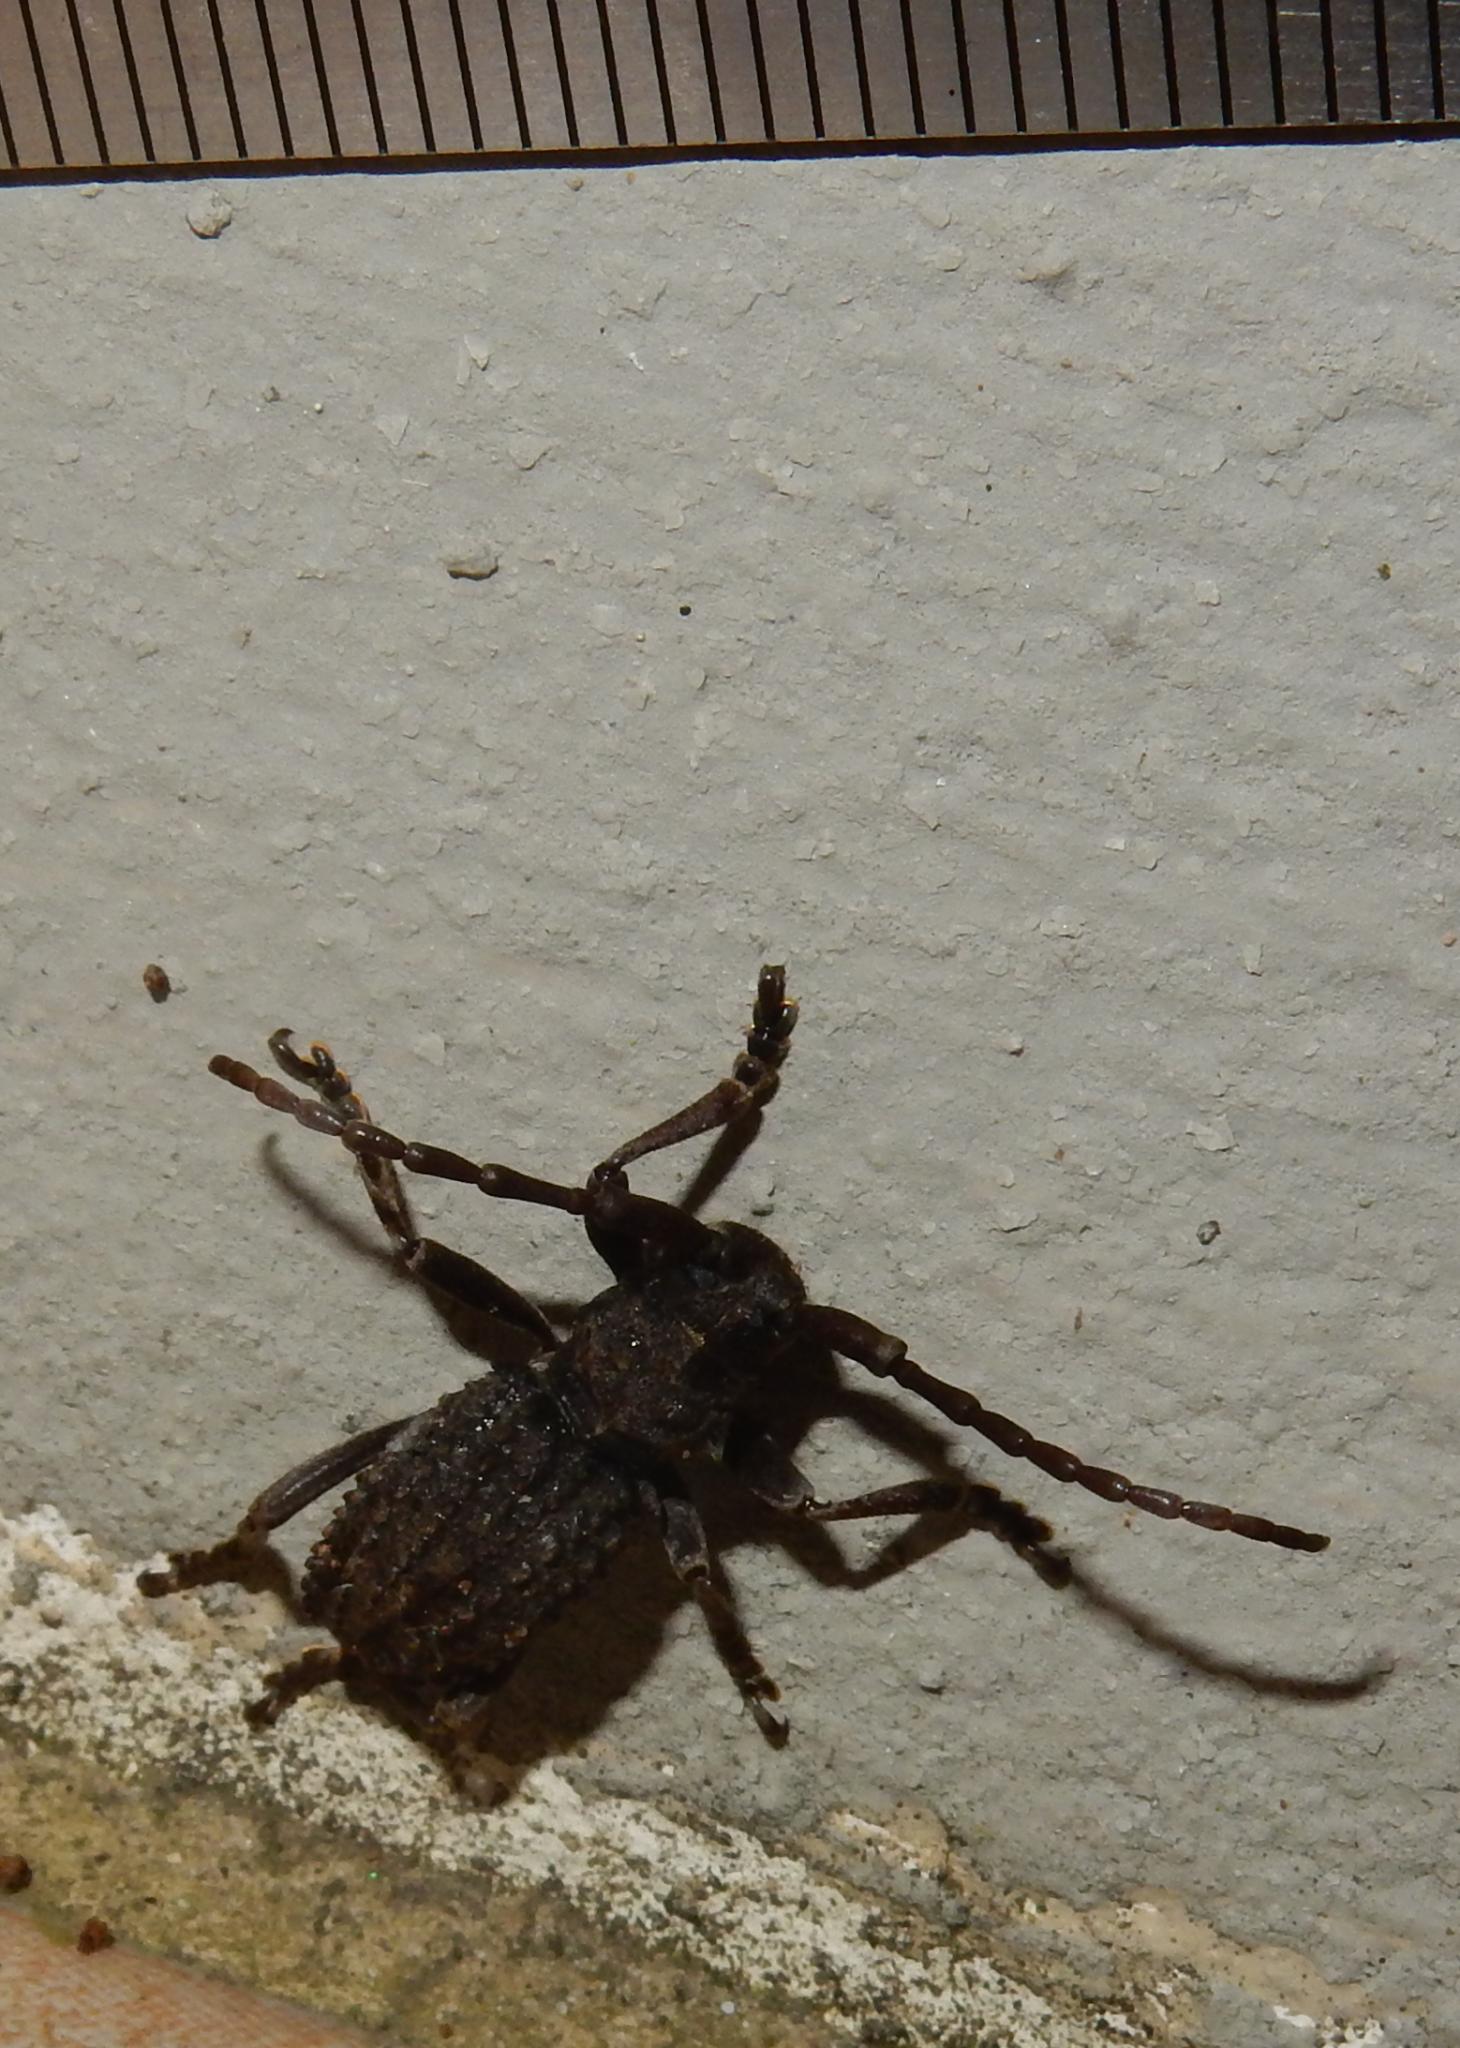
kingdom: Animalia
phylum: Arthropoda
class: Insecta
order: Coleoptera
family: Cerambycidae
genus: Phrissoma
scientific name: Phrissoma crispum
